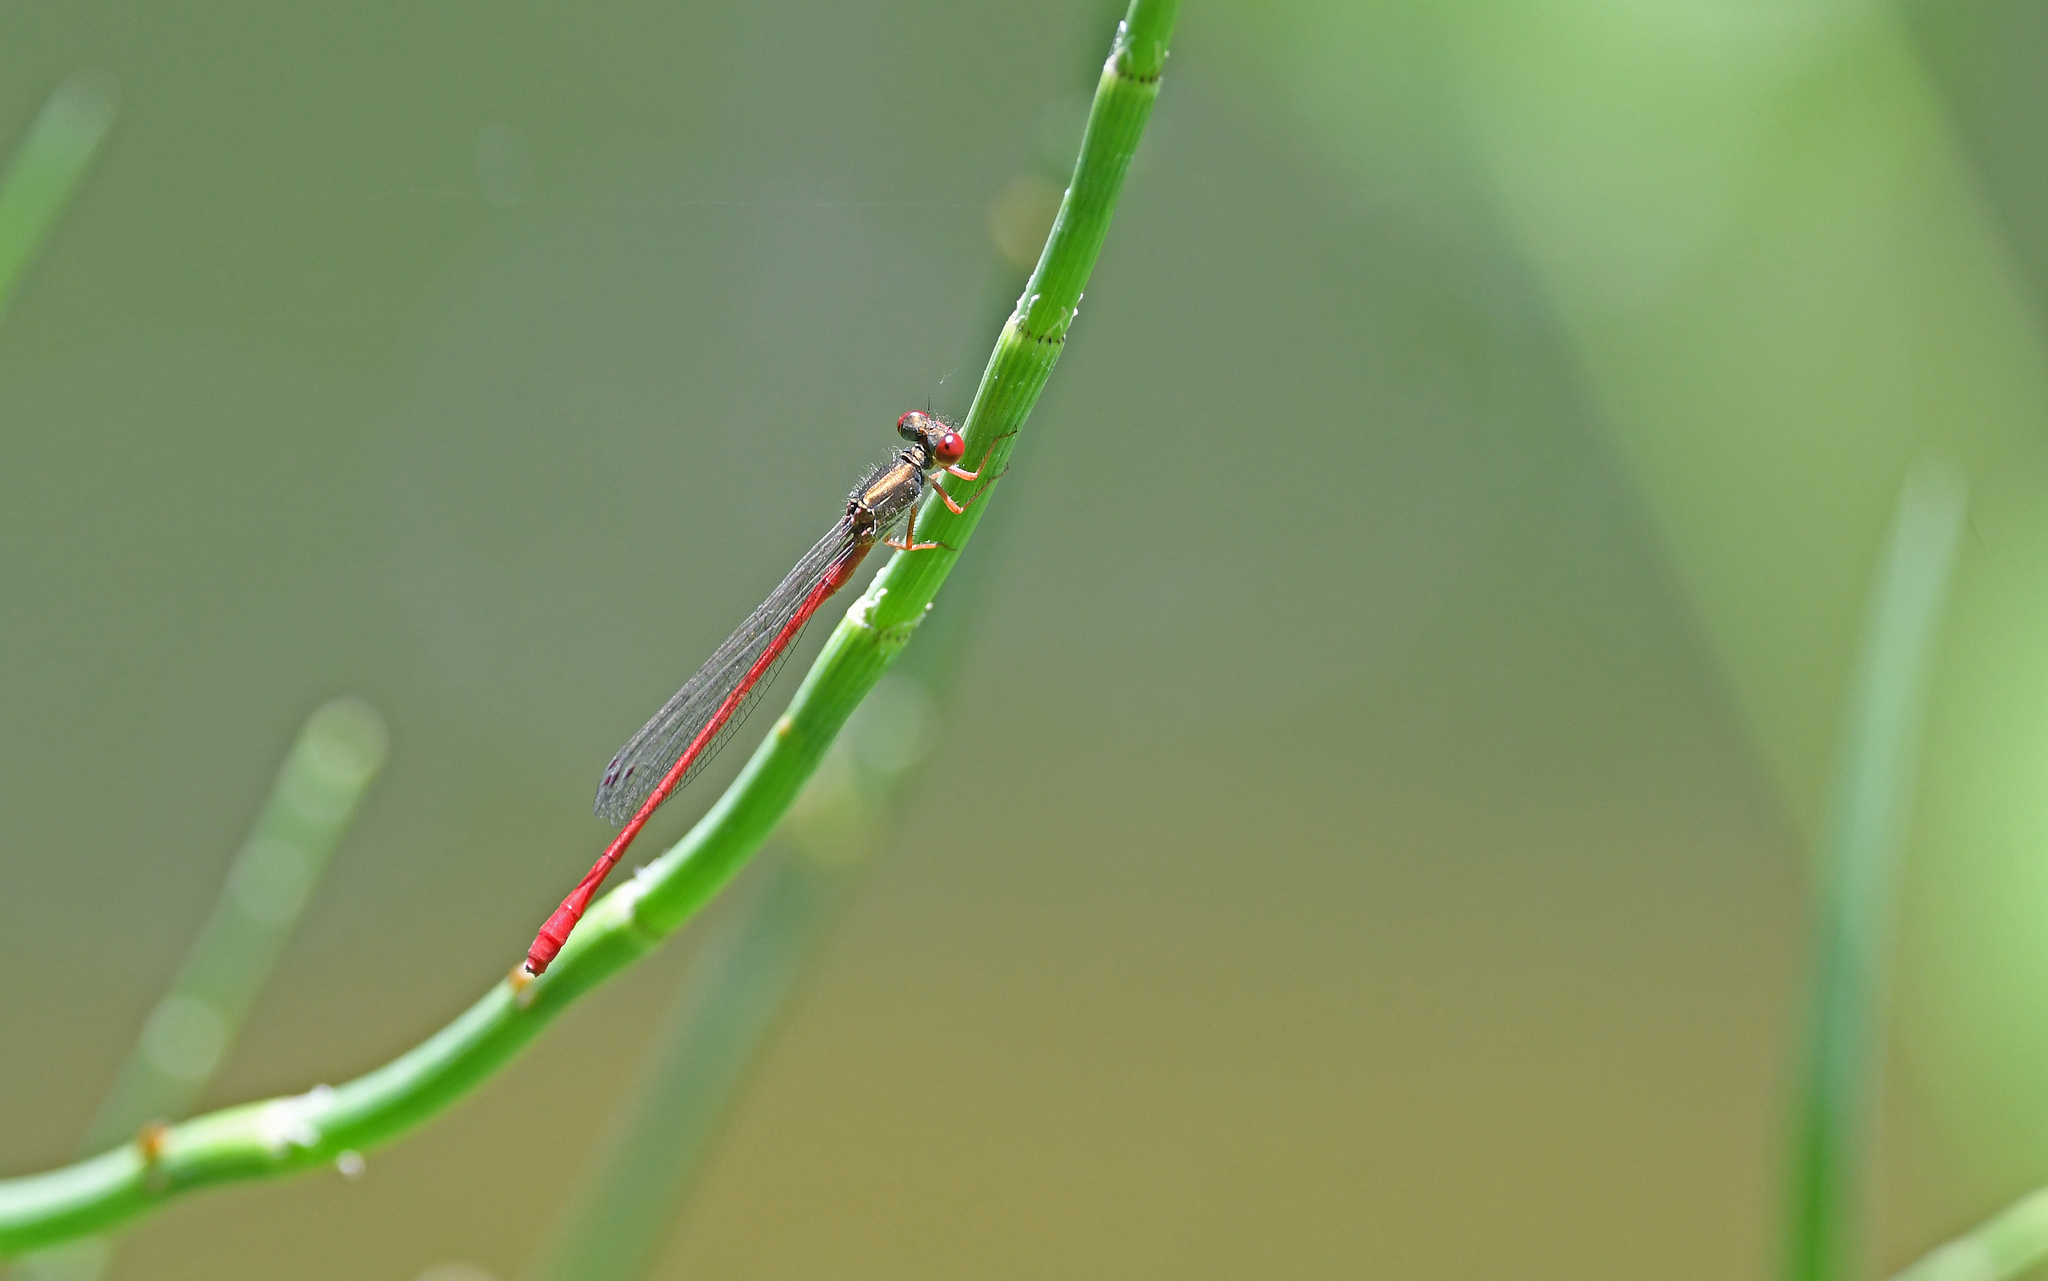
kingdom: Animalia
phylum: Arthropoda
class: Insecta
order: Odonata
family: Coenagrionidae
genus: Ceriagrion
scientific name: Ceriagrion tenellum
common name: Small red damselfly
